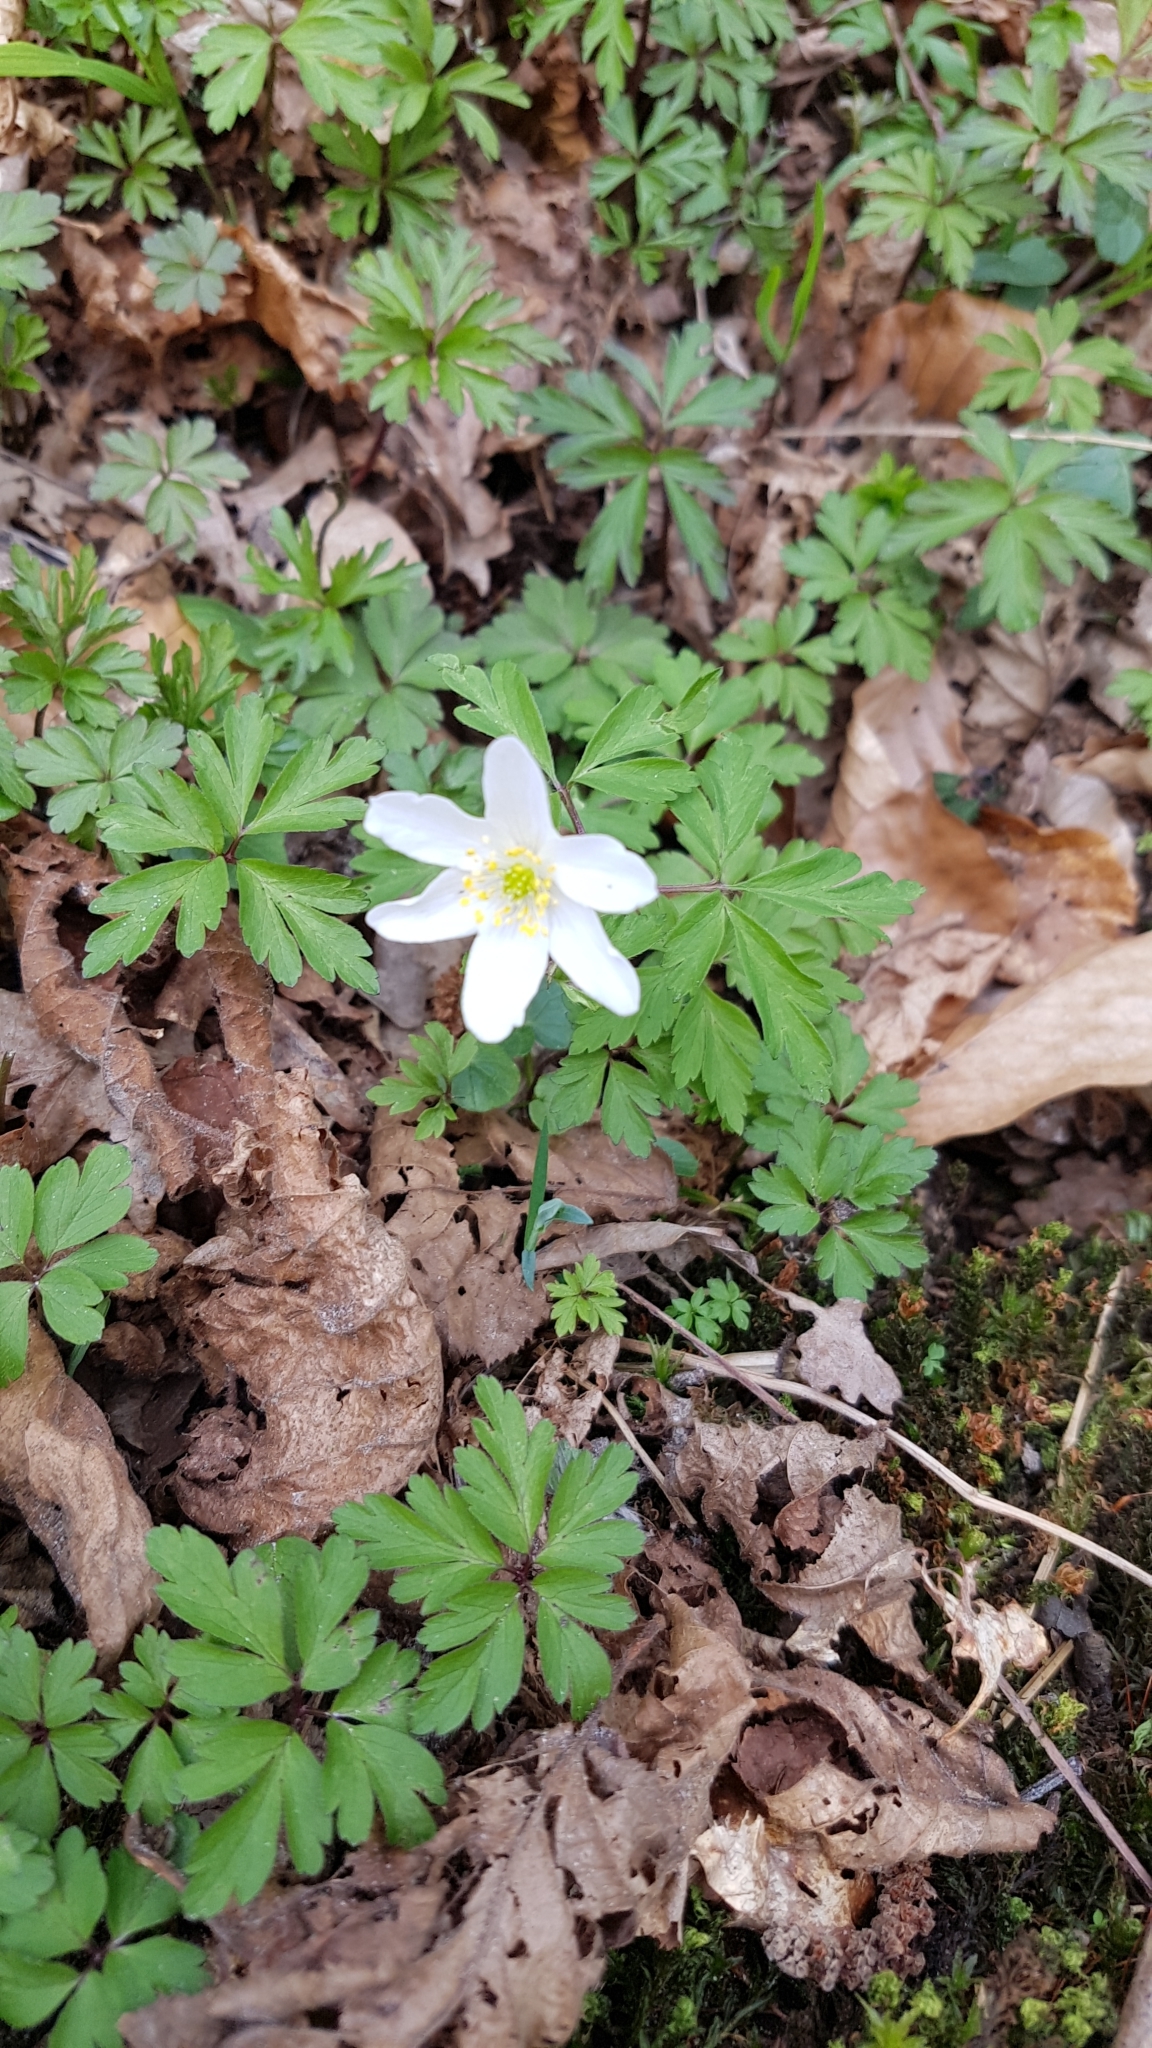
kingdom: Plantae
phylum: Tracheophyta
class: Magnoliopsida
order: Ranunculales
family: Ranunculaceae
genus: Anemone
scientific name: Anemone nemorosa
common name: Wood anemone
